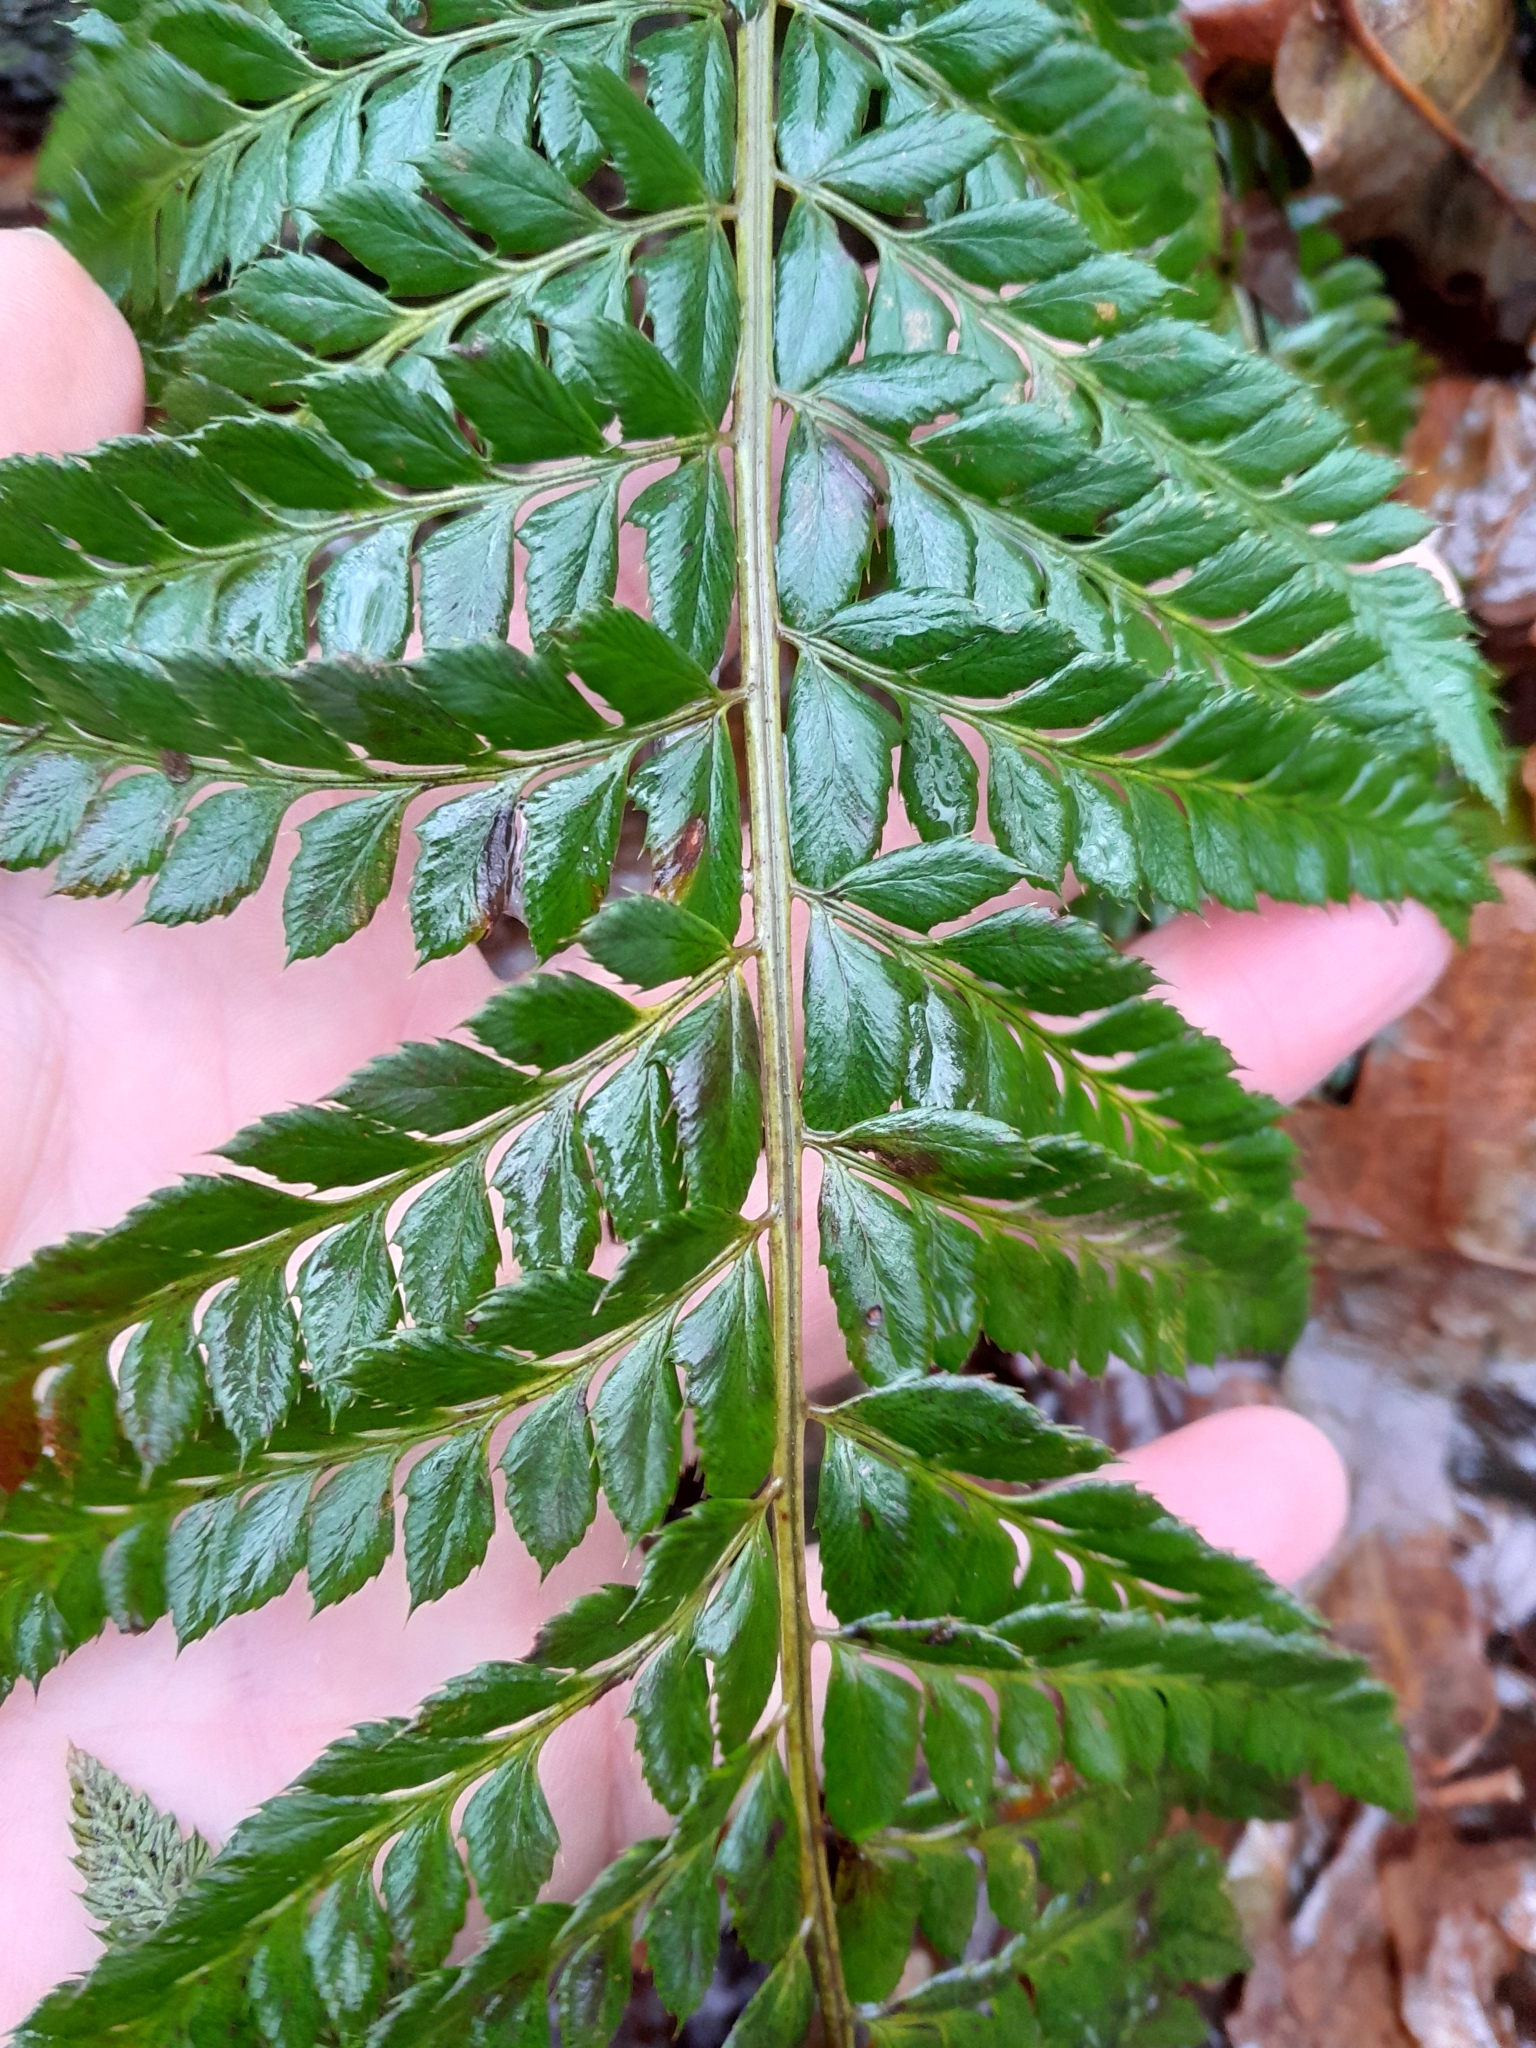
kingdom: Plantae
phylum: Tracheophyta
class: Polypodiopsida
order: Polypodiales
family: Dryopteridaceae
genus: Polystichum
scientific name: Polystichum aculeatum
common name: Hard shield-fern
